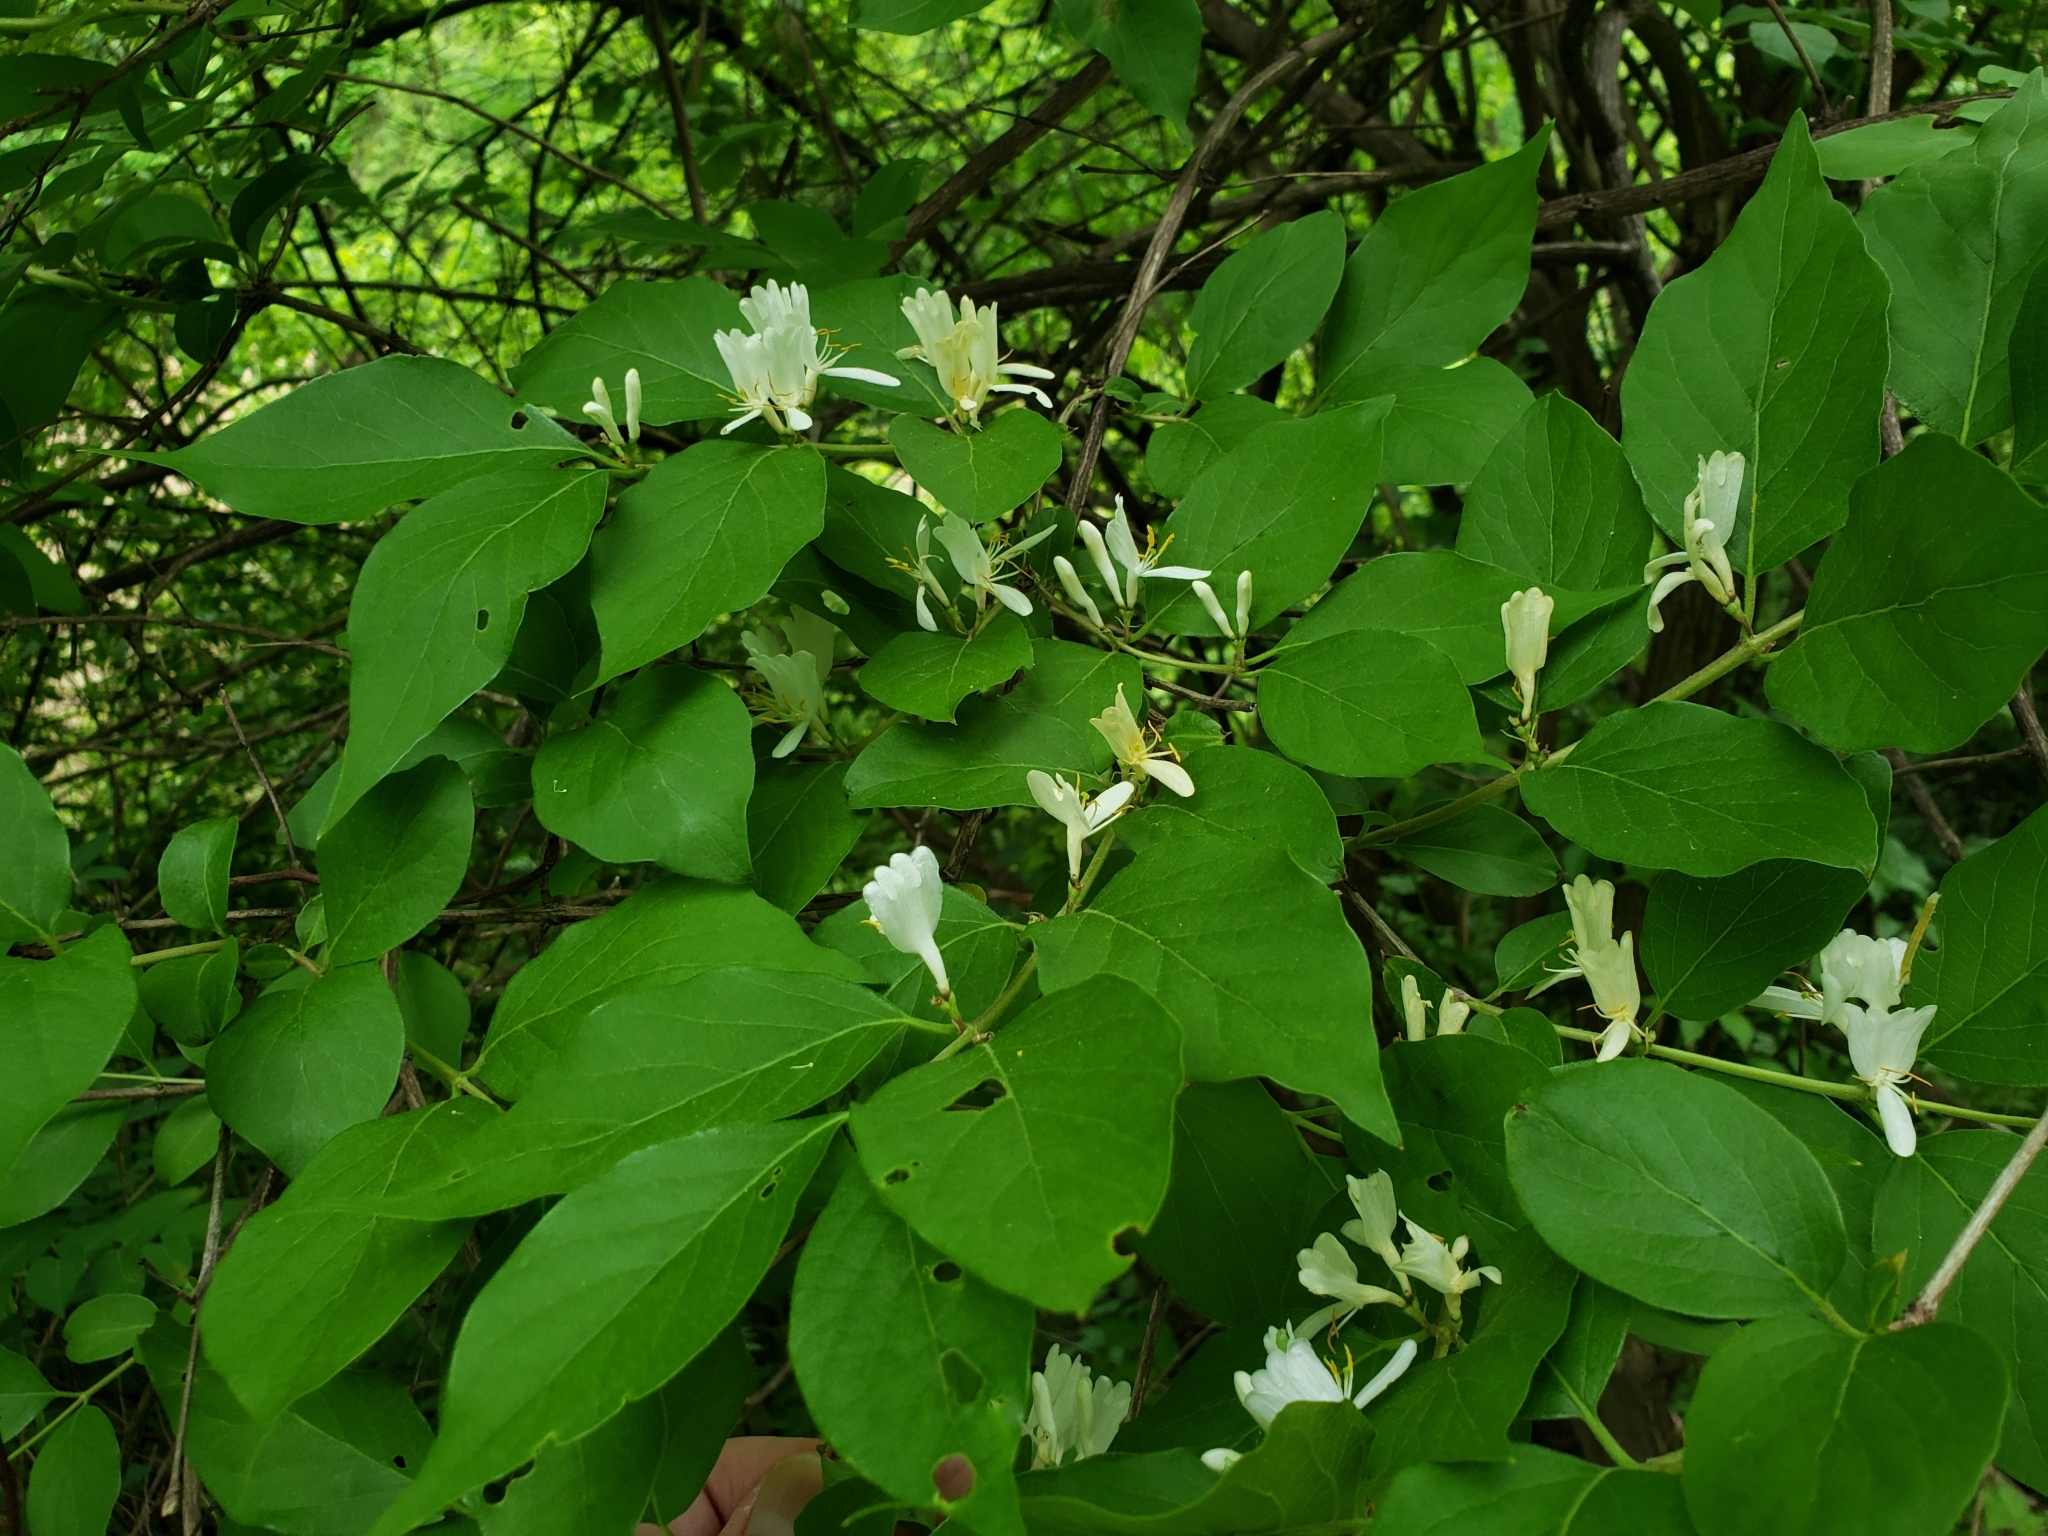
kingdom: Plantae
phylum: Tracheophyta
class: Magnoliopsida
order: Dipsacales
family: Caprifoliaceae
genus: Lonicera
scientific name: Lonicera maackii
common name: Amur honeysuckle
